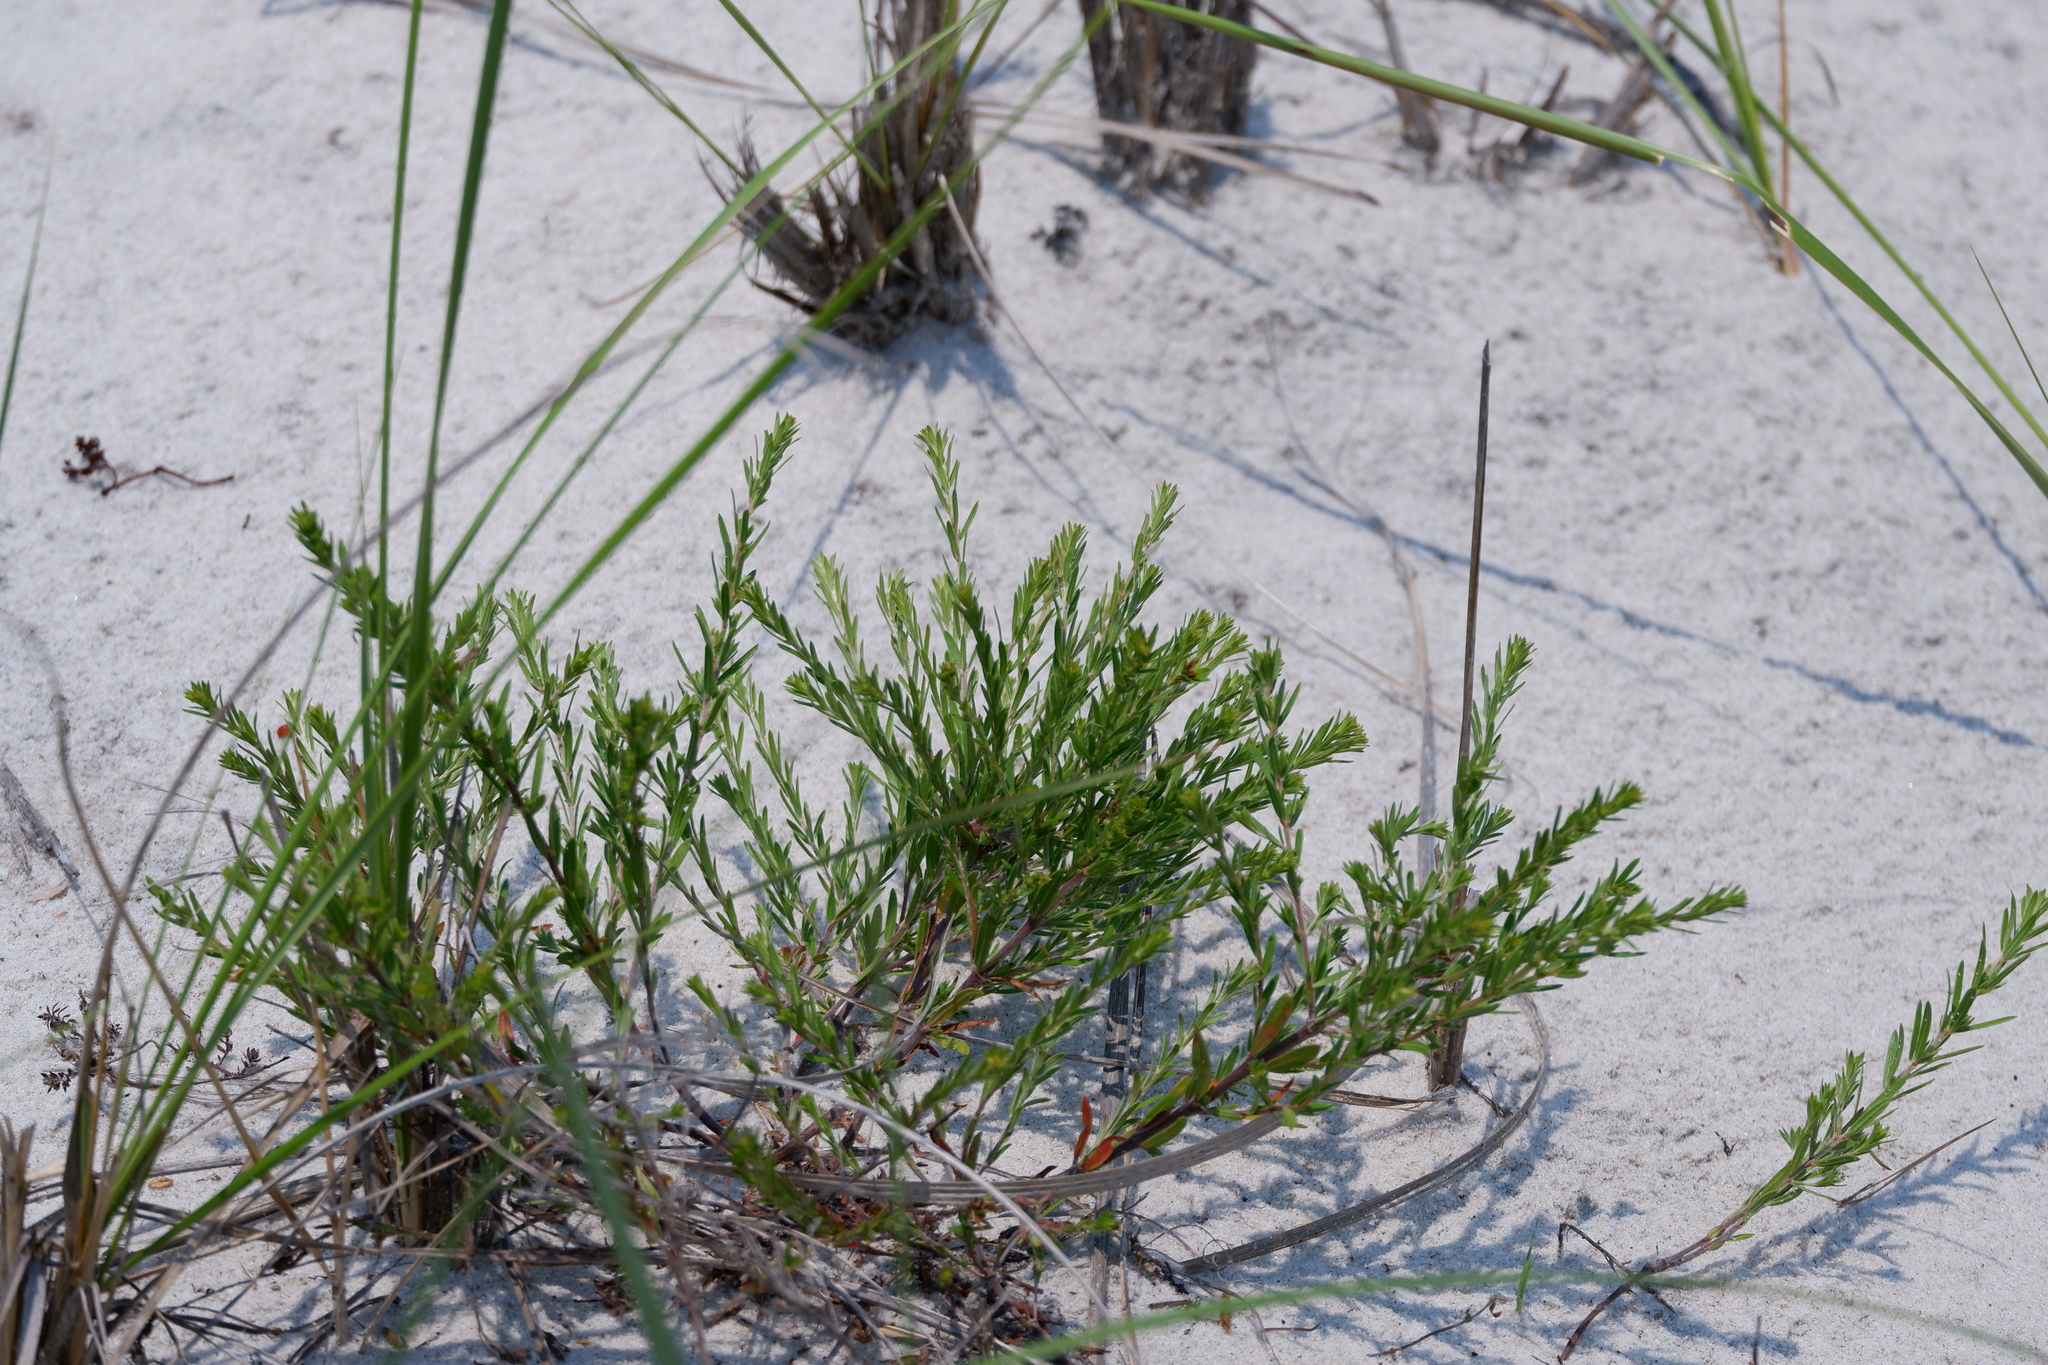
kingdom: Plantae
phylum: Tracheophyta
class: Magnoliopsida
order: Malvales
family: Cistaceae
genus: Lechea
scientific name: Lechea maritima
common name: Beach pinweed
